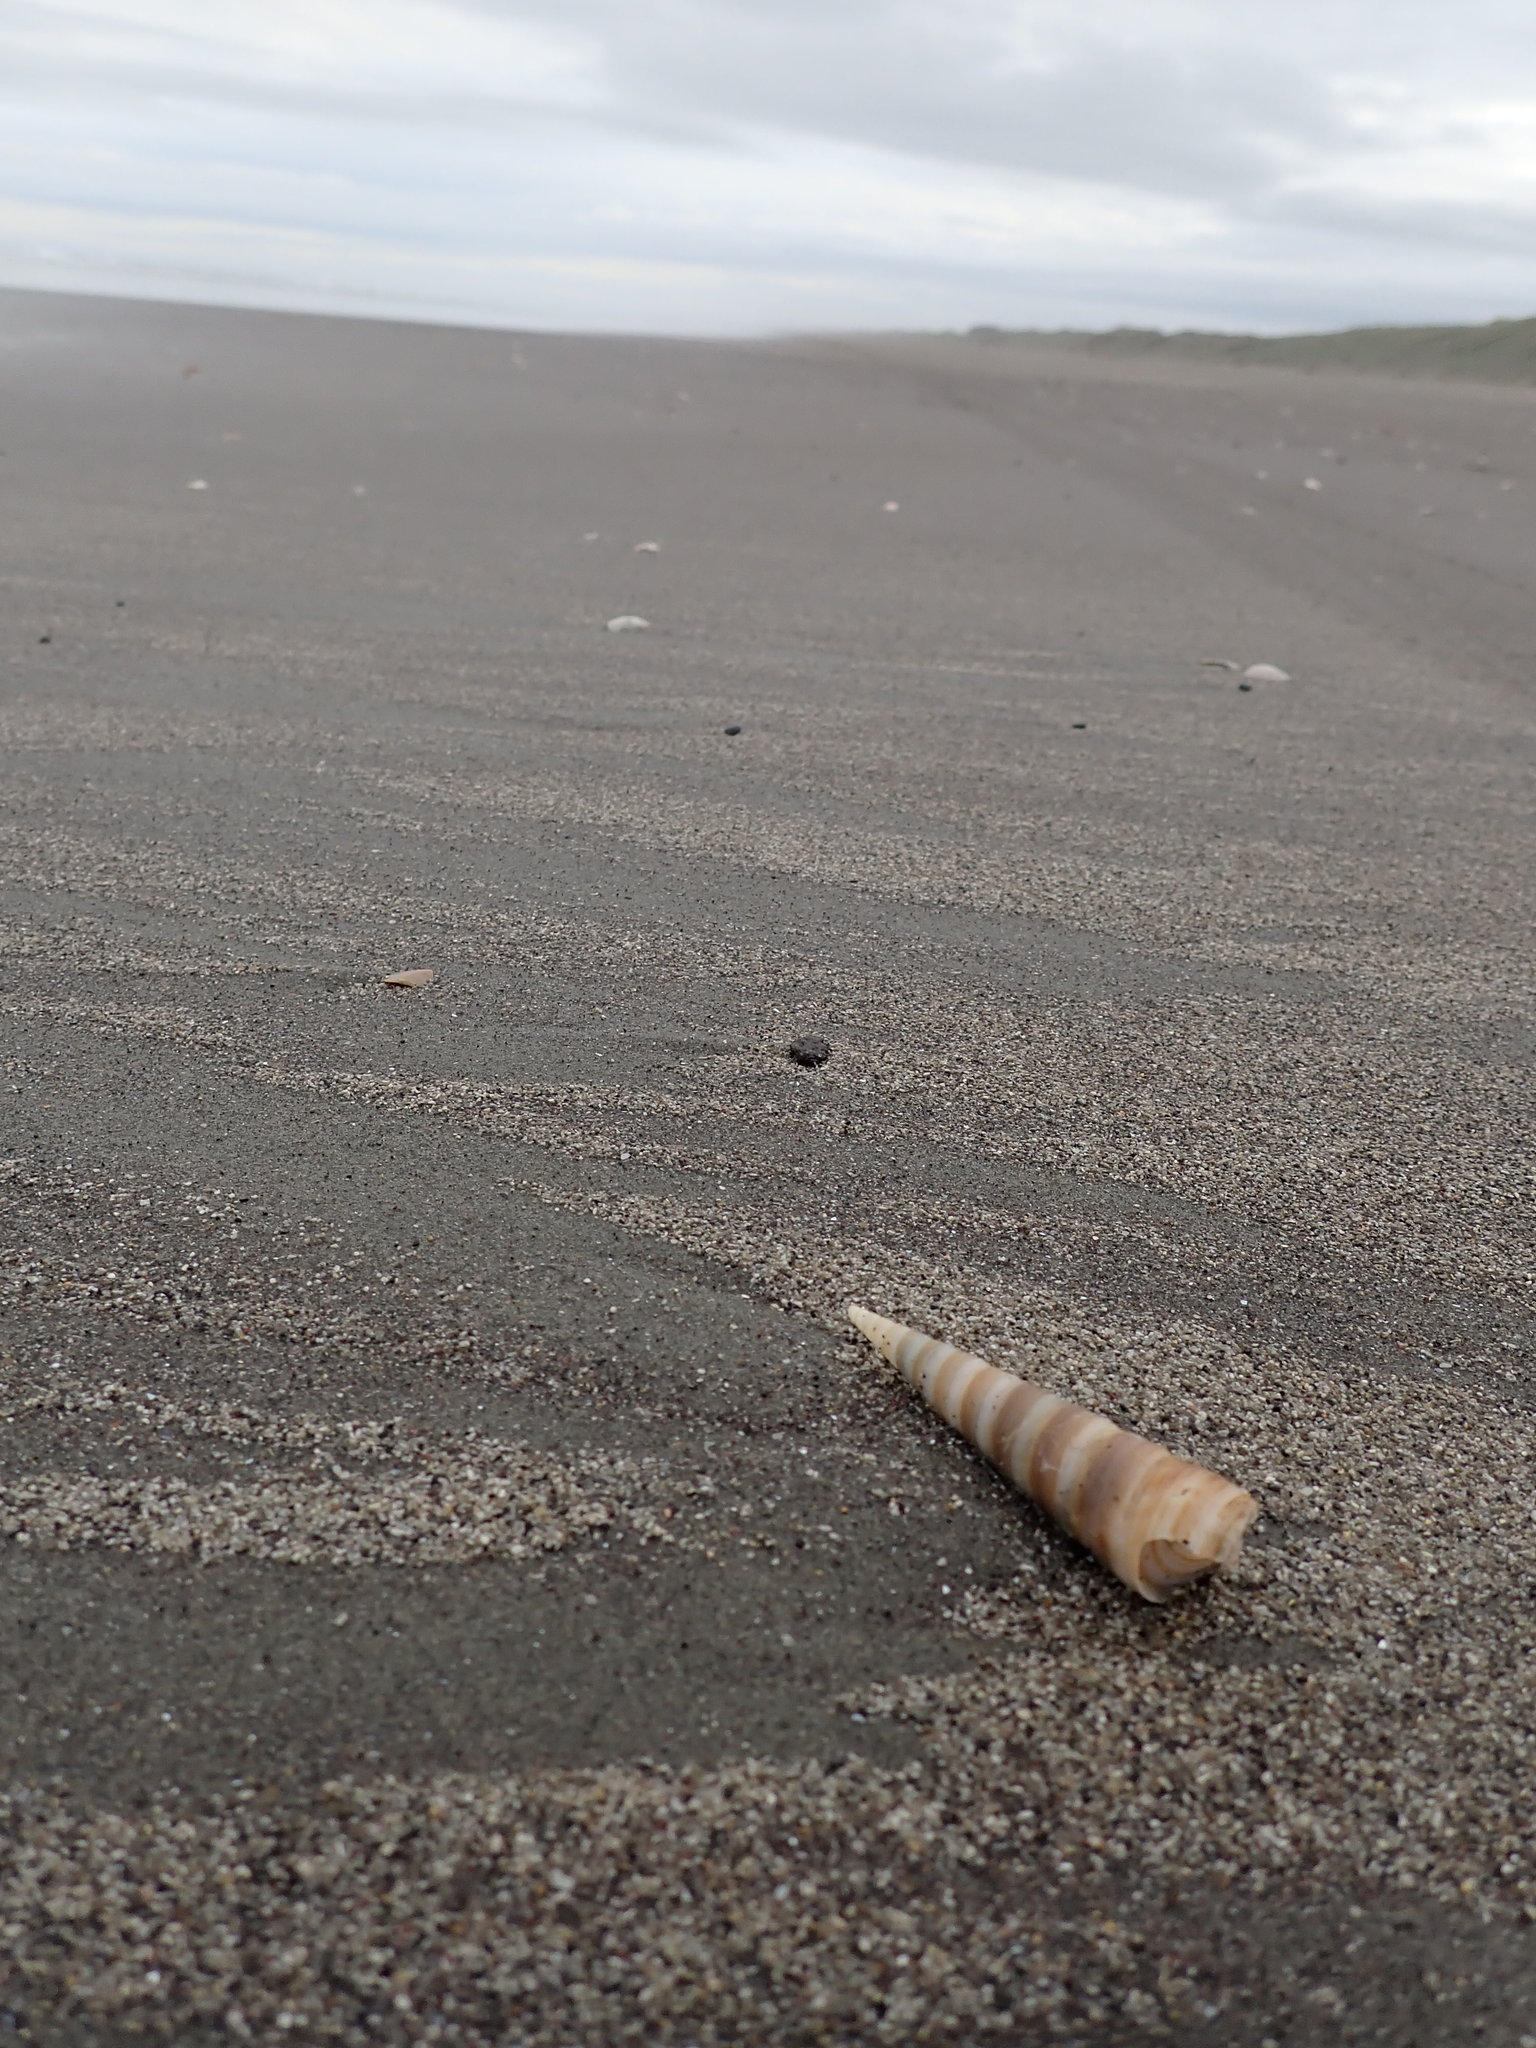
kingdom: Animalia
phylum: Mollusca
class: Gastropoda
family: Turritellidae
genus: Zeacolpus
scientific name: Zeacolpus vittatus
